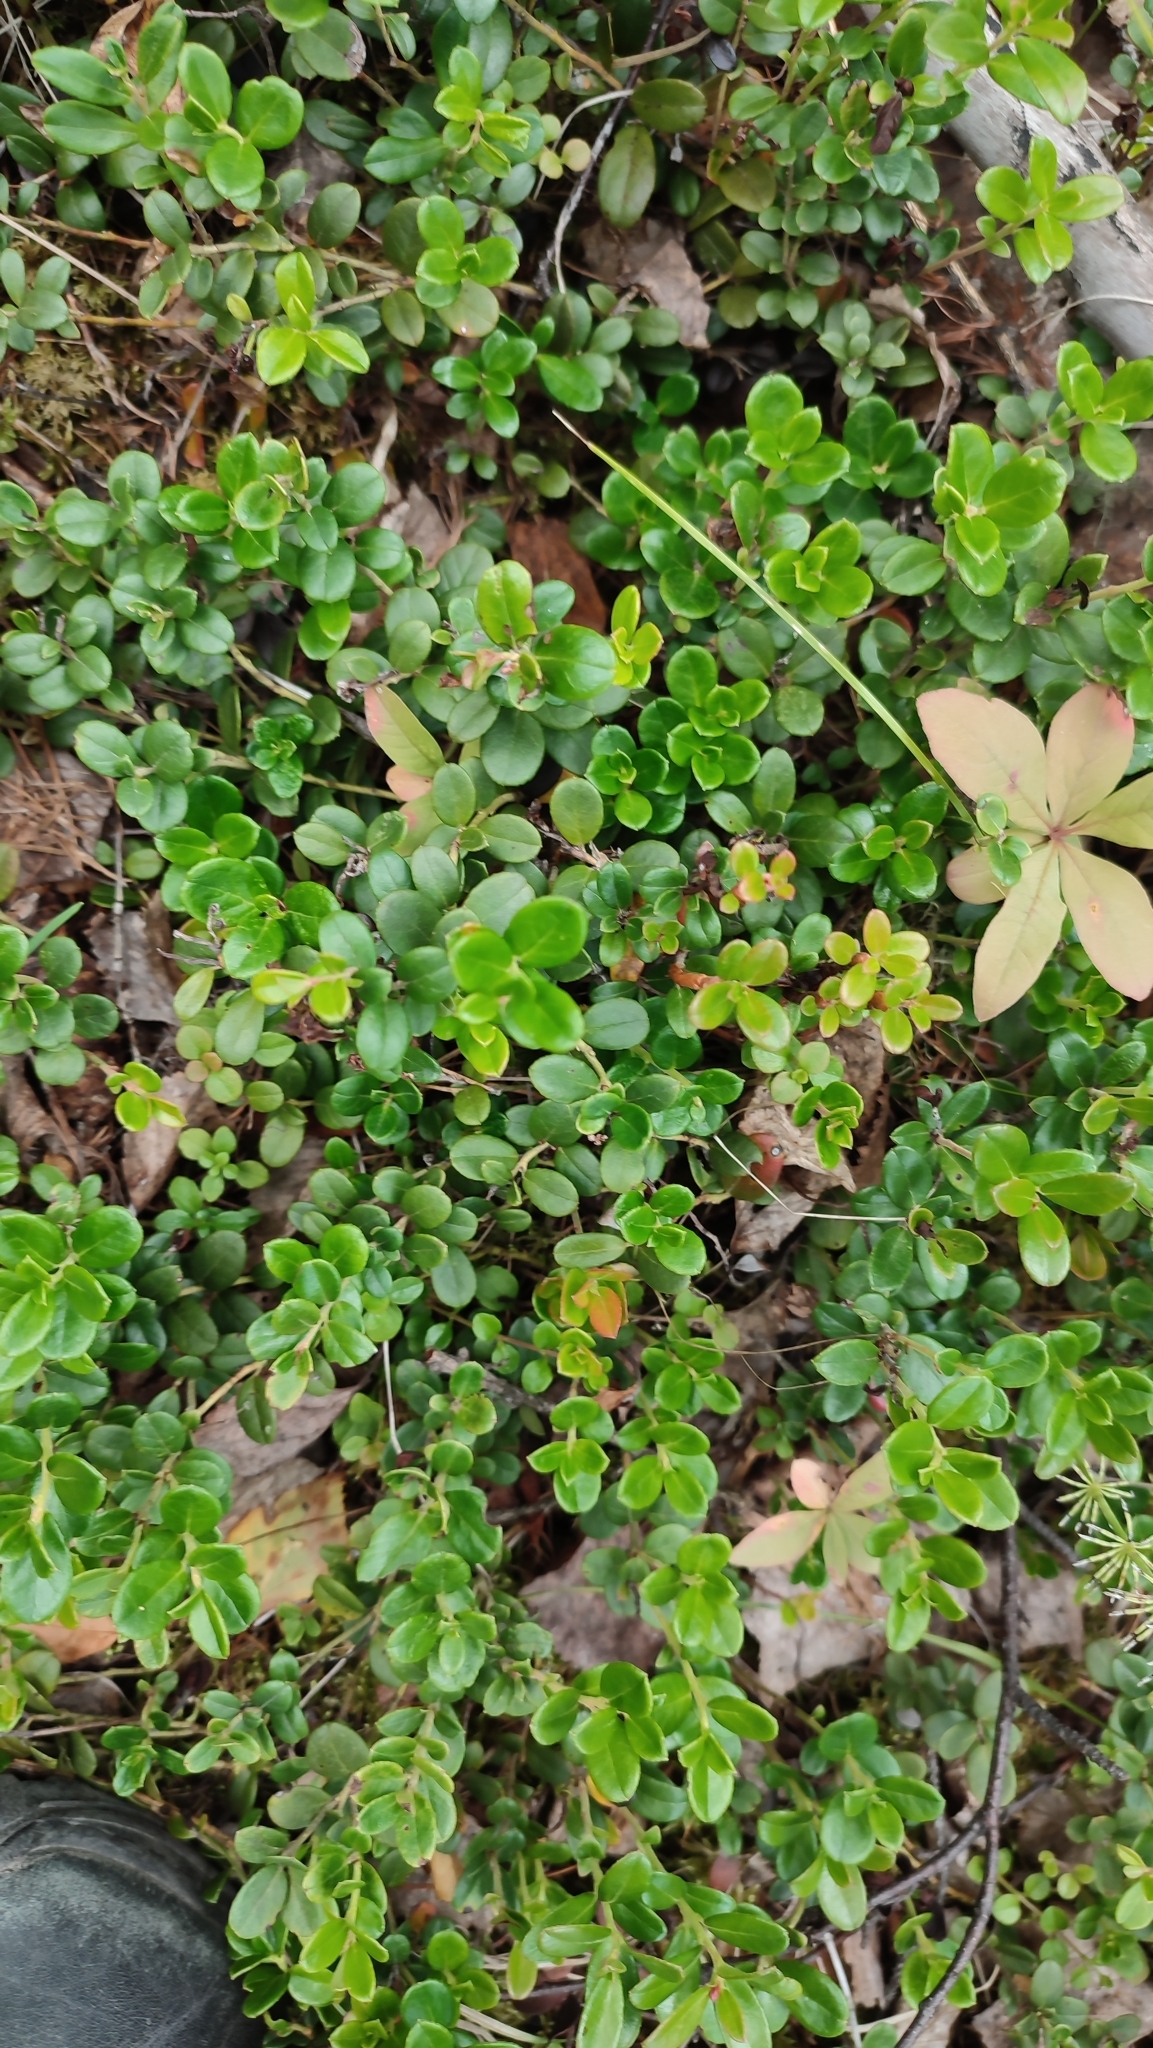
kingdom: Plantae
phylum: Tracheophyta
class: Magnoliopsida
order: Ericales
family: Ericaceae
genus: Vaccinium
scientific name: Vaccinium vitis-idaea
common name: Cowberry
